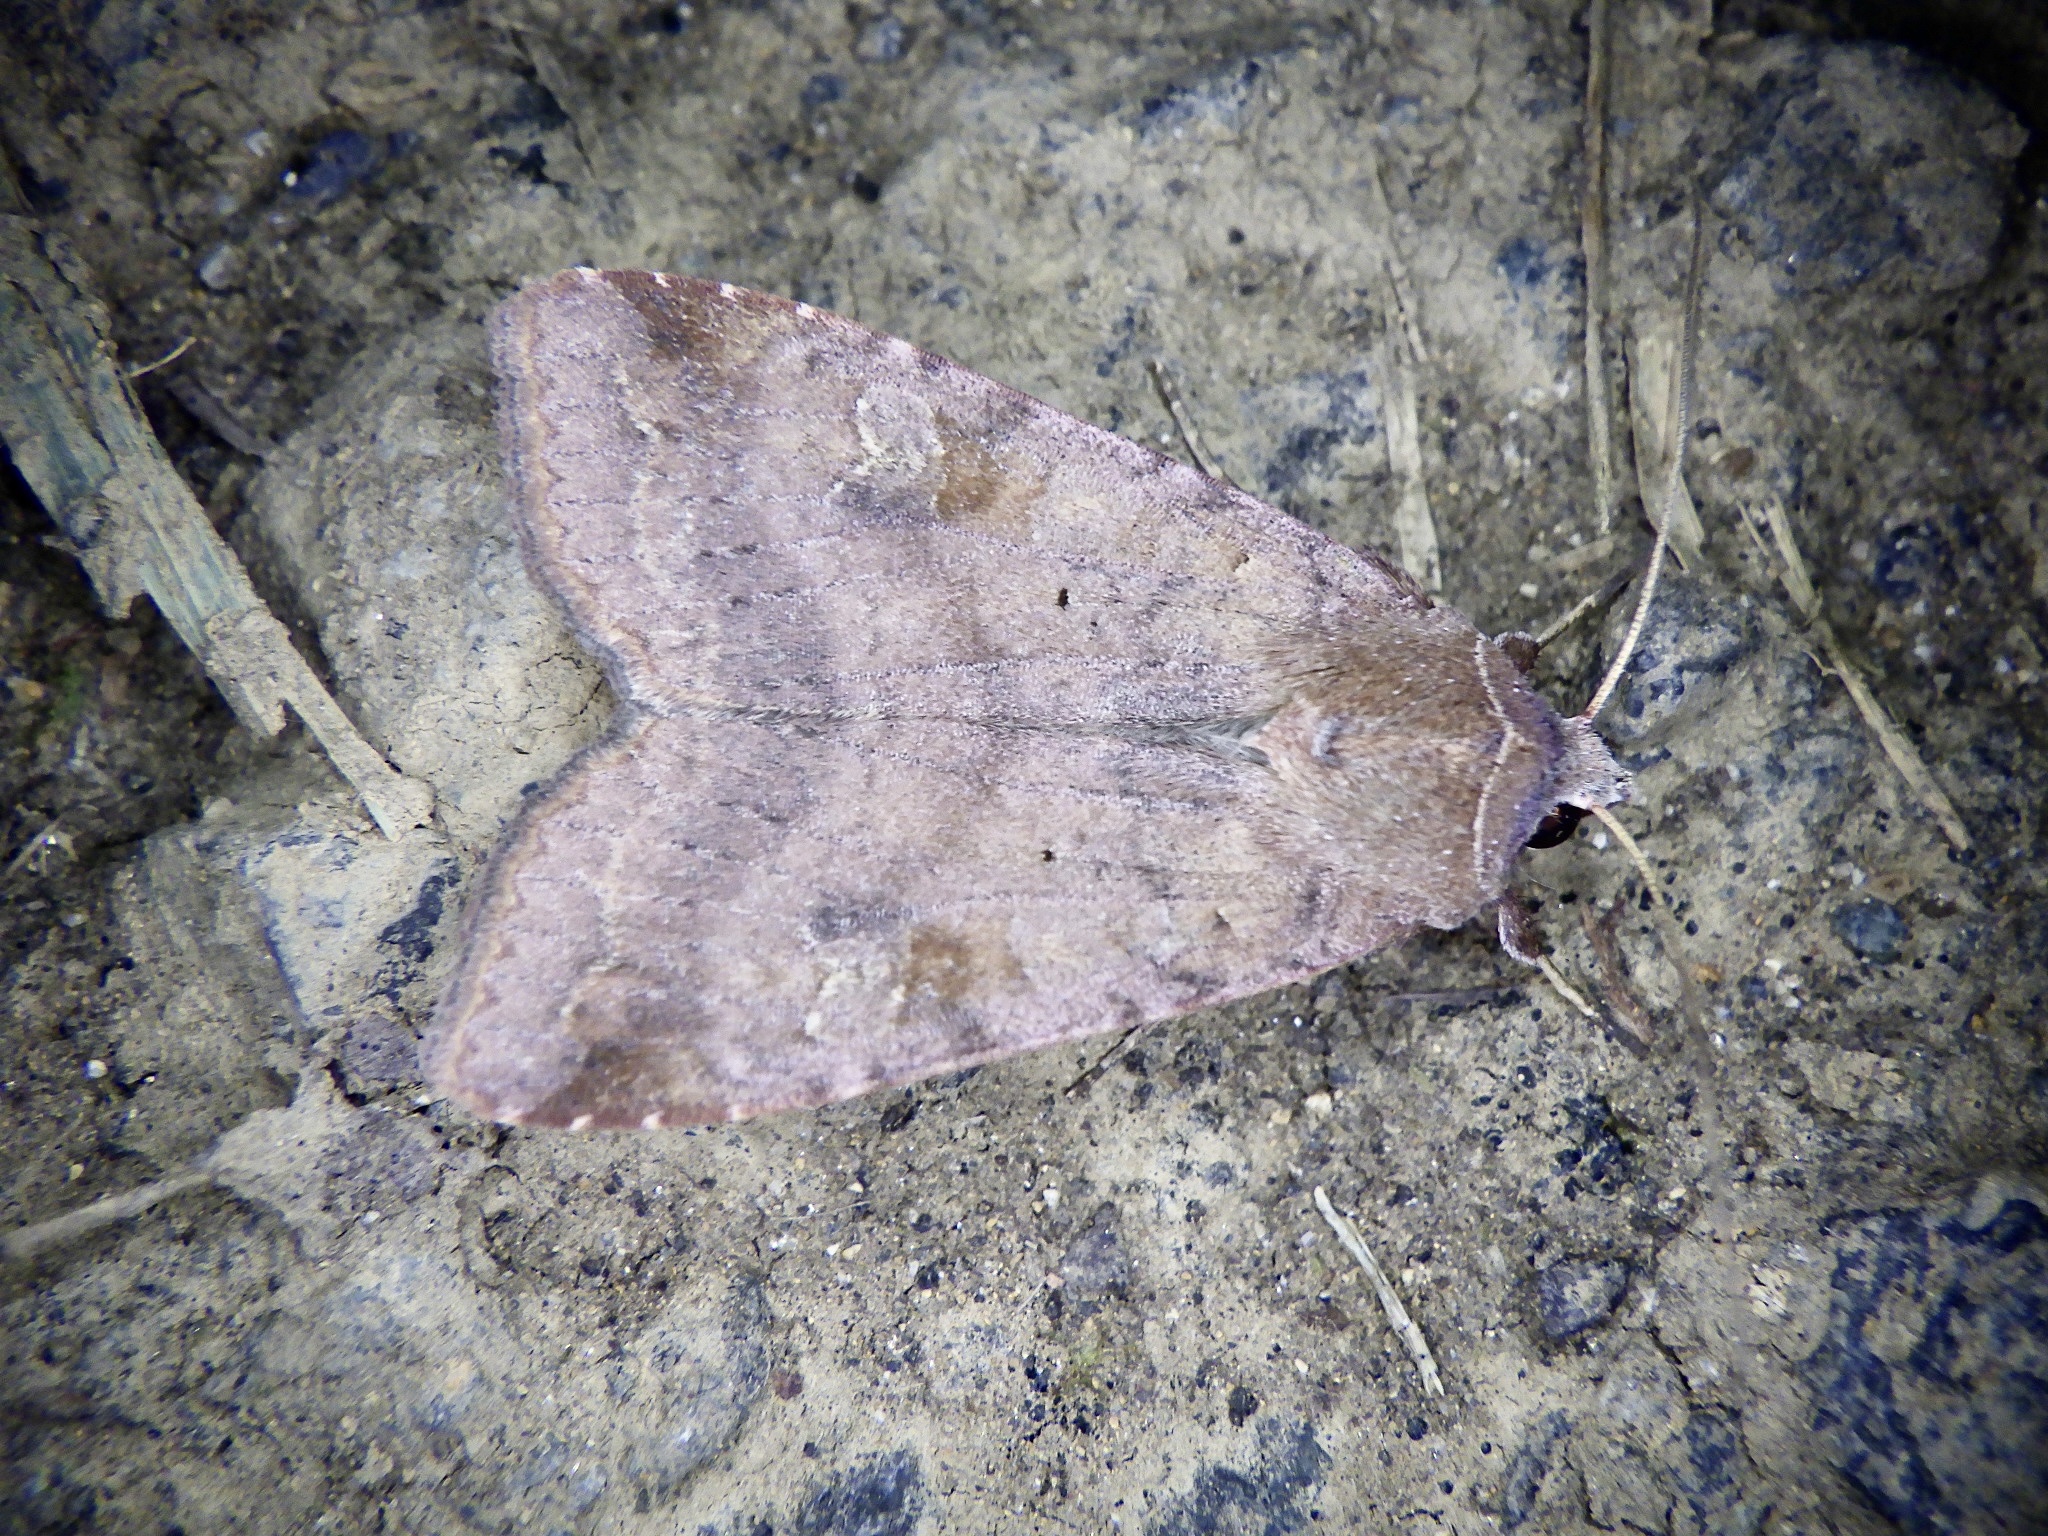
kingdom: Animalia
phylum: Arthropoda
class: Insecta
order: Lepidoptera
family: Noctuidae
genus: Diarsia
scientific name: Diarsia canescens
